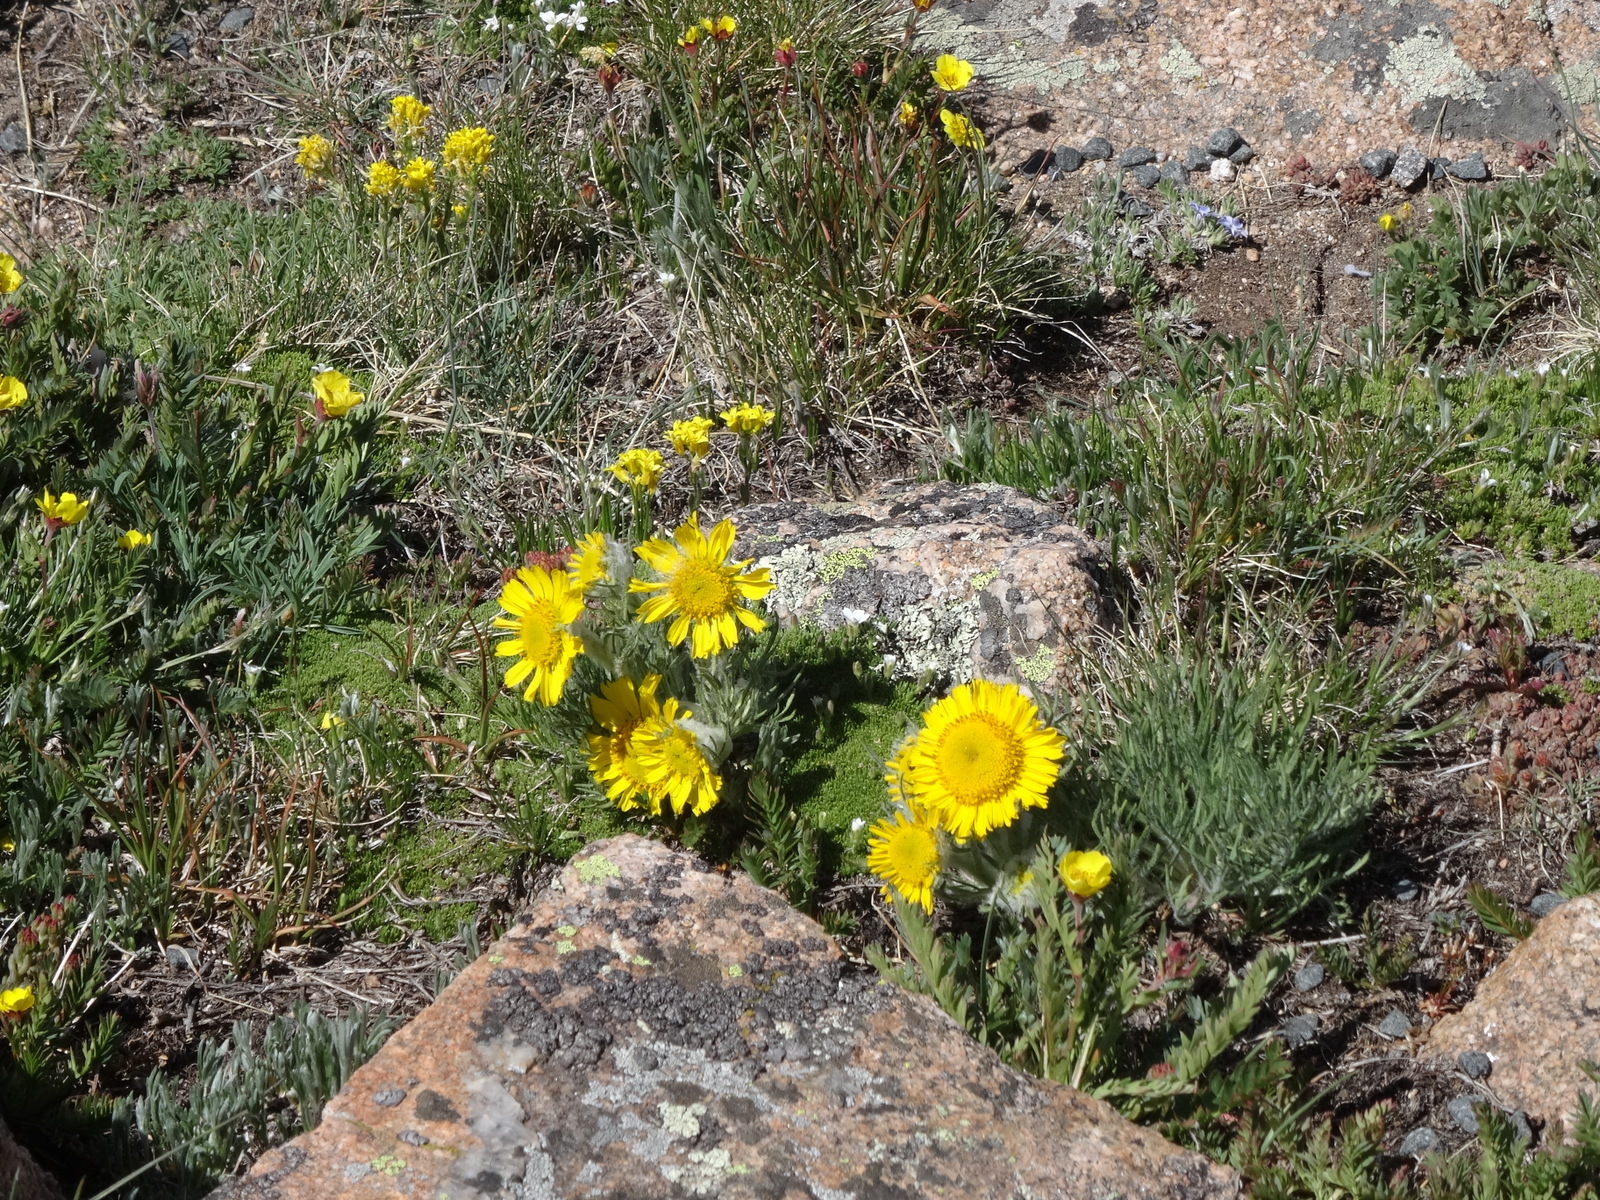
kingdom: Plantae
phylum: Tracheophyta
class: Magnoliopsida
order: Asterales
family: Asteraceae
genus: Hymenoxys
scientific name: Hymenoxys grandiflora
